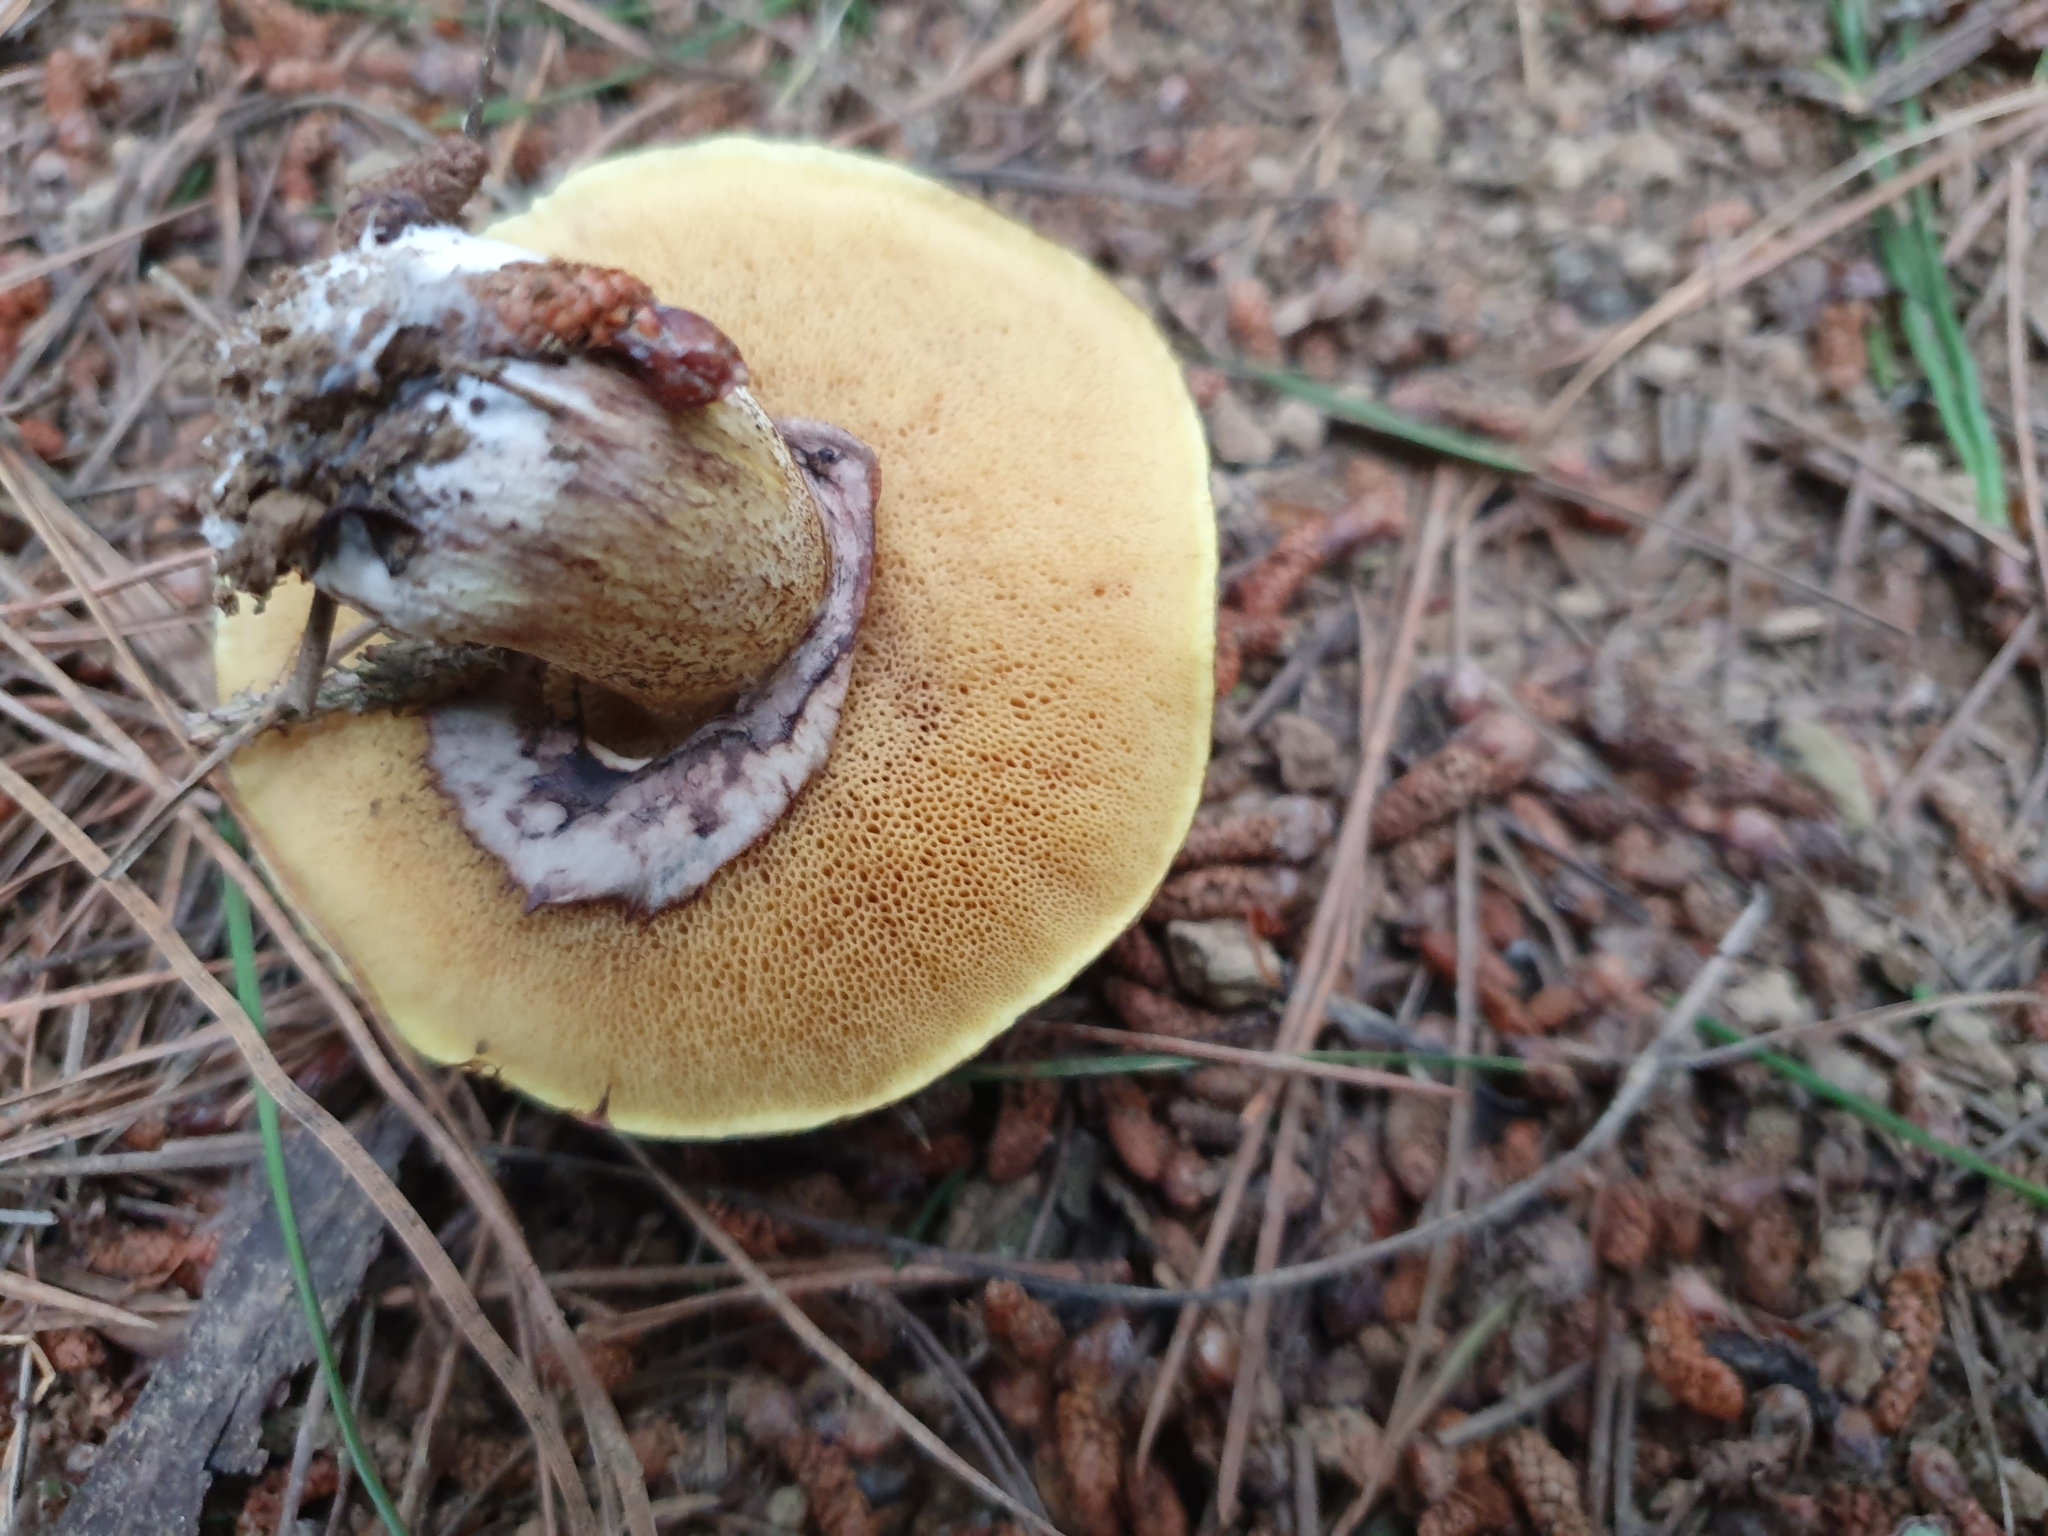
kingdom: Fungi
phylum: Basidiomycota
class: Agaricomycetes
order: Boletales
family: Suillaceae
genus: Suillus
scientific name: Suillus luteus
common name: Slippery jack
